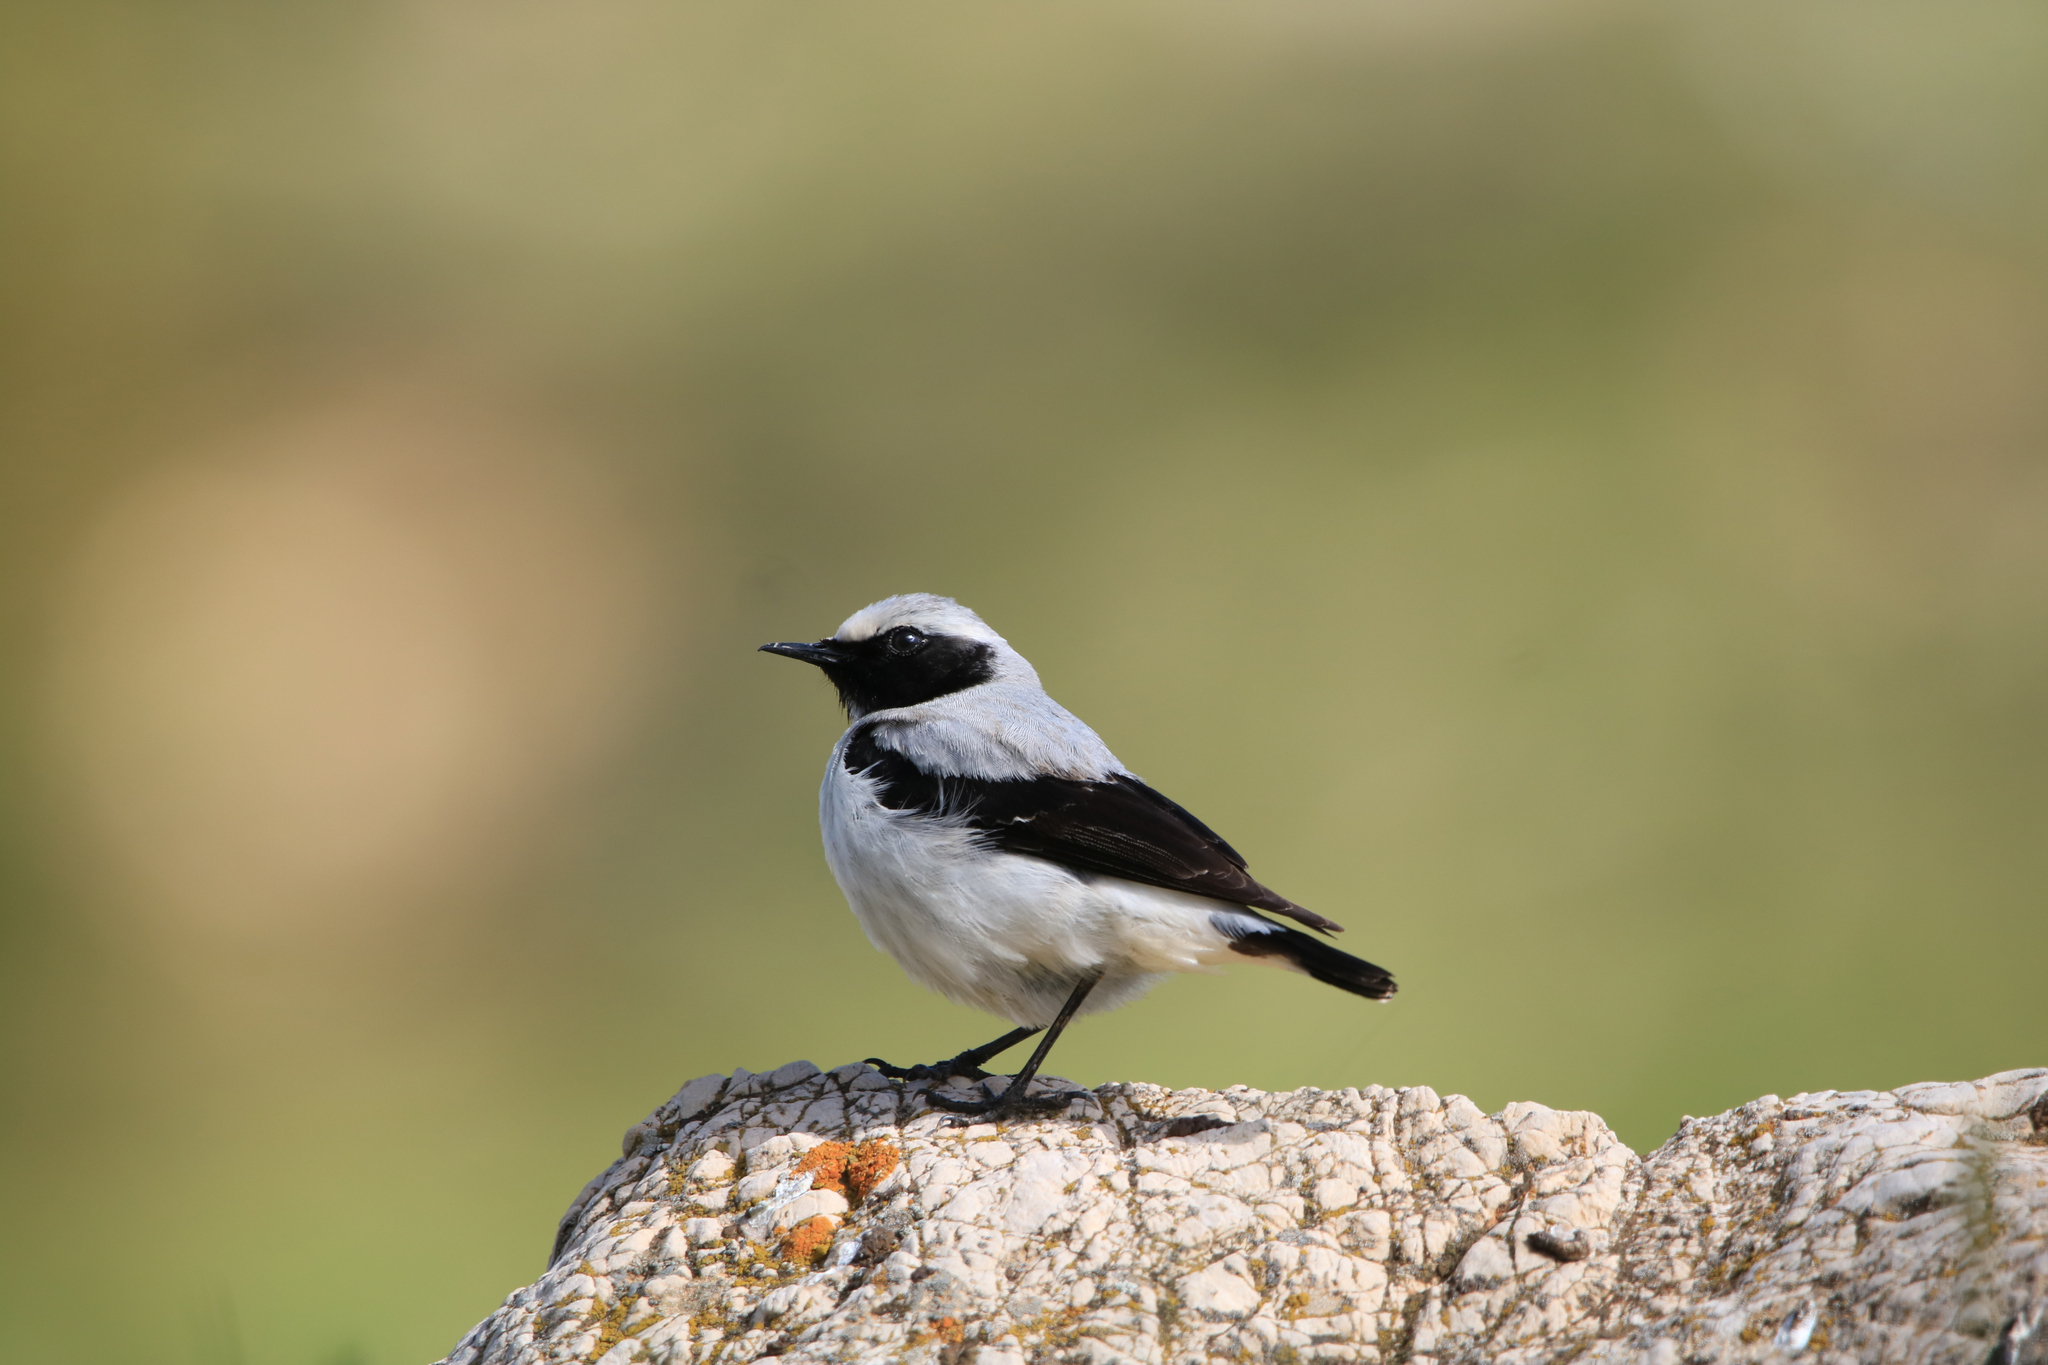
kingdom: Animalia
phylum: Chordata
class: Aves
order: Passeriformes
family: Muscicapidae
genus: Oenanthe
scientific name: Oenanthe oenanthe
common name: Northern wheatear
